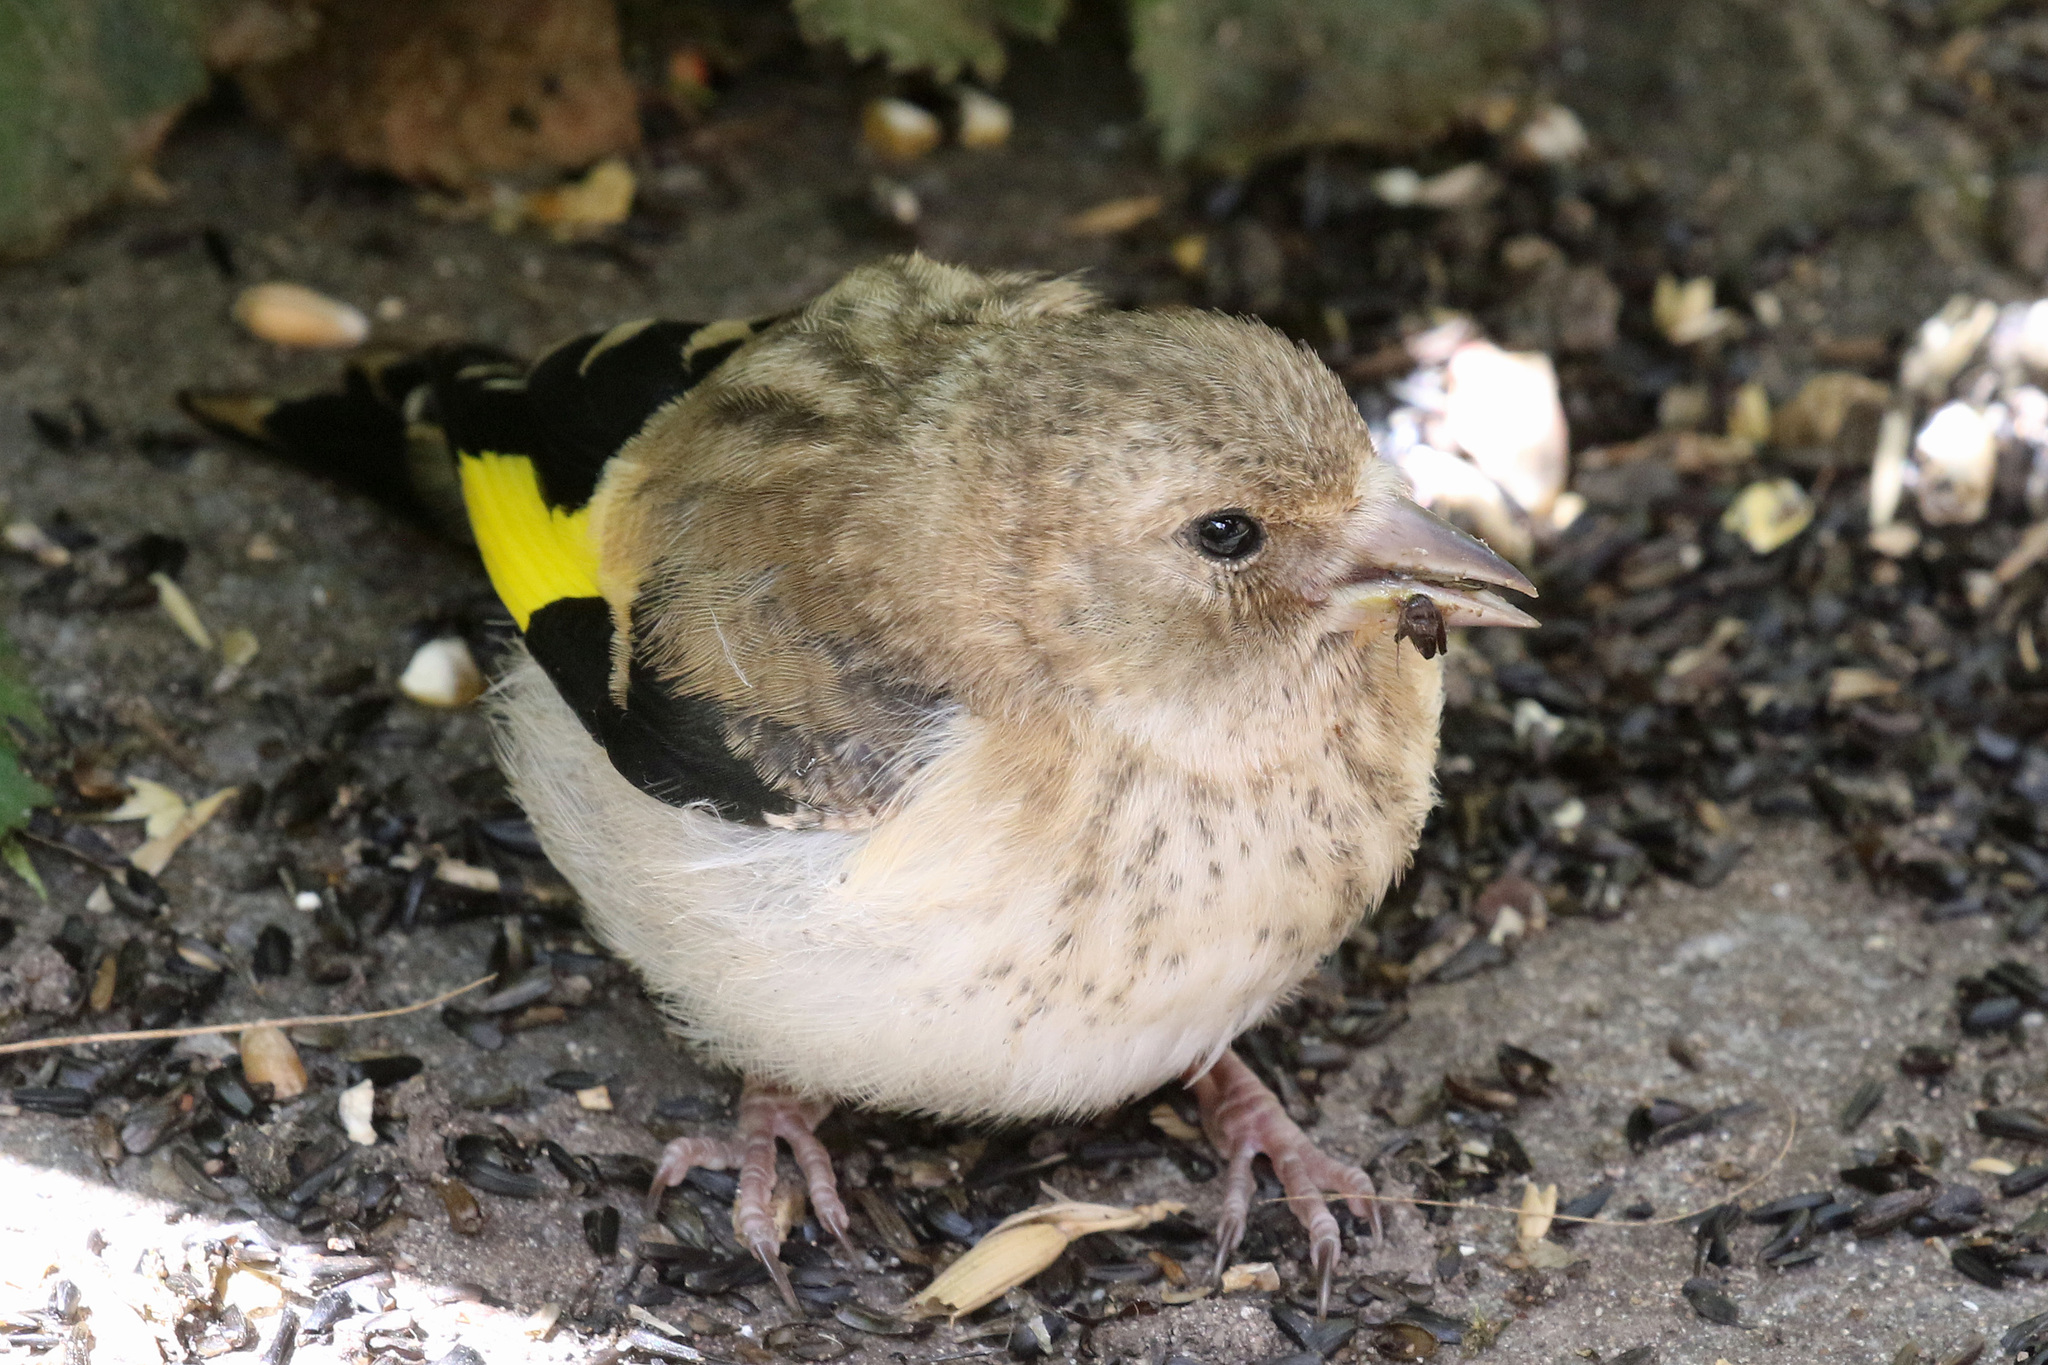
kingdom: Animalia
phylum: Chordata
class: Aves
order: Passeriformes
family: Fringillidae
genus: Carduelis
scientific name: Carduelis carduelis
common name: European goldfinch
